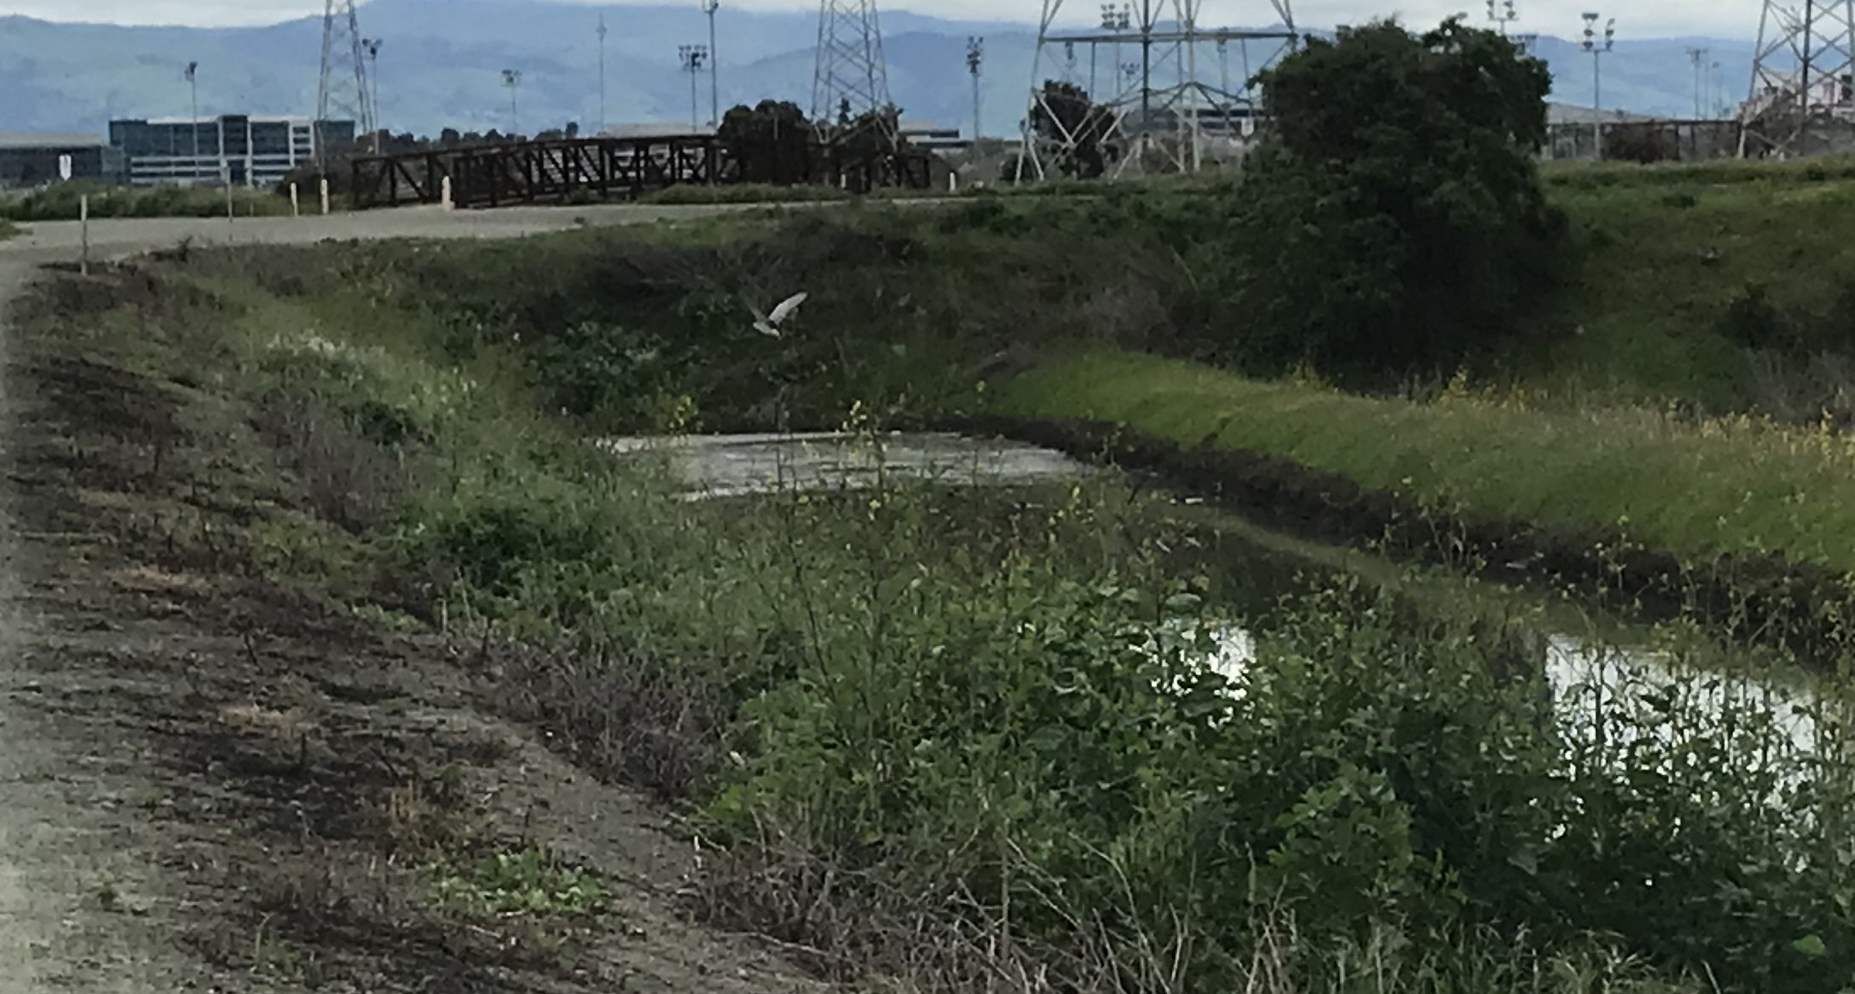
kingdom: Animalia
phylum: Chordata
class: Aves
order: Pelecaniformes
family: Ardeidae
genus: Nycticorax
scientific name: Nycticorax nycticorax
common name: Black-crowned night heron
